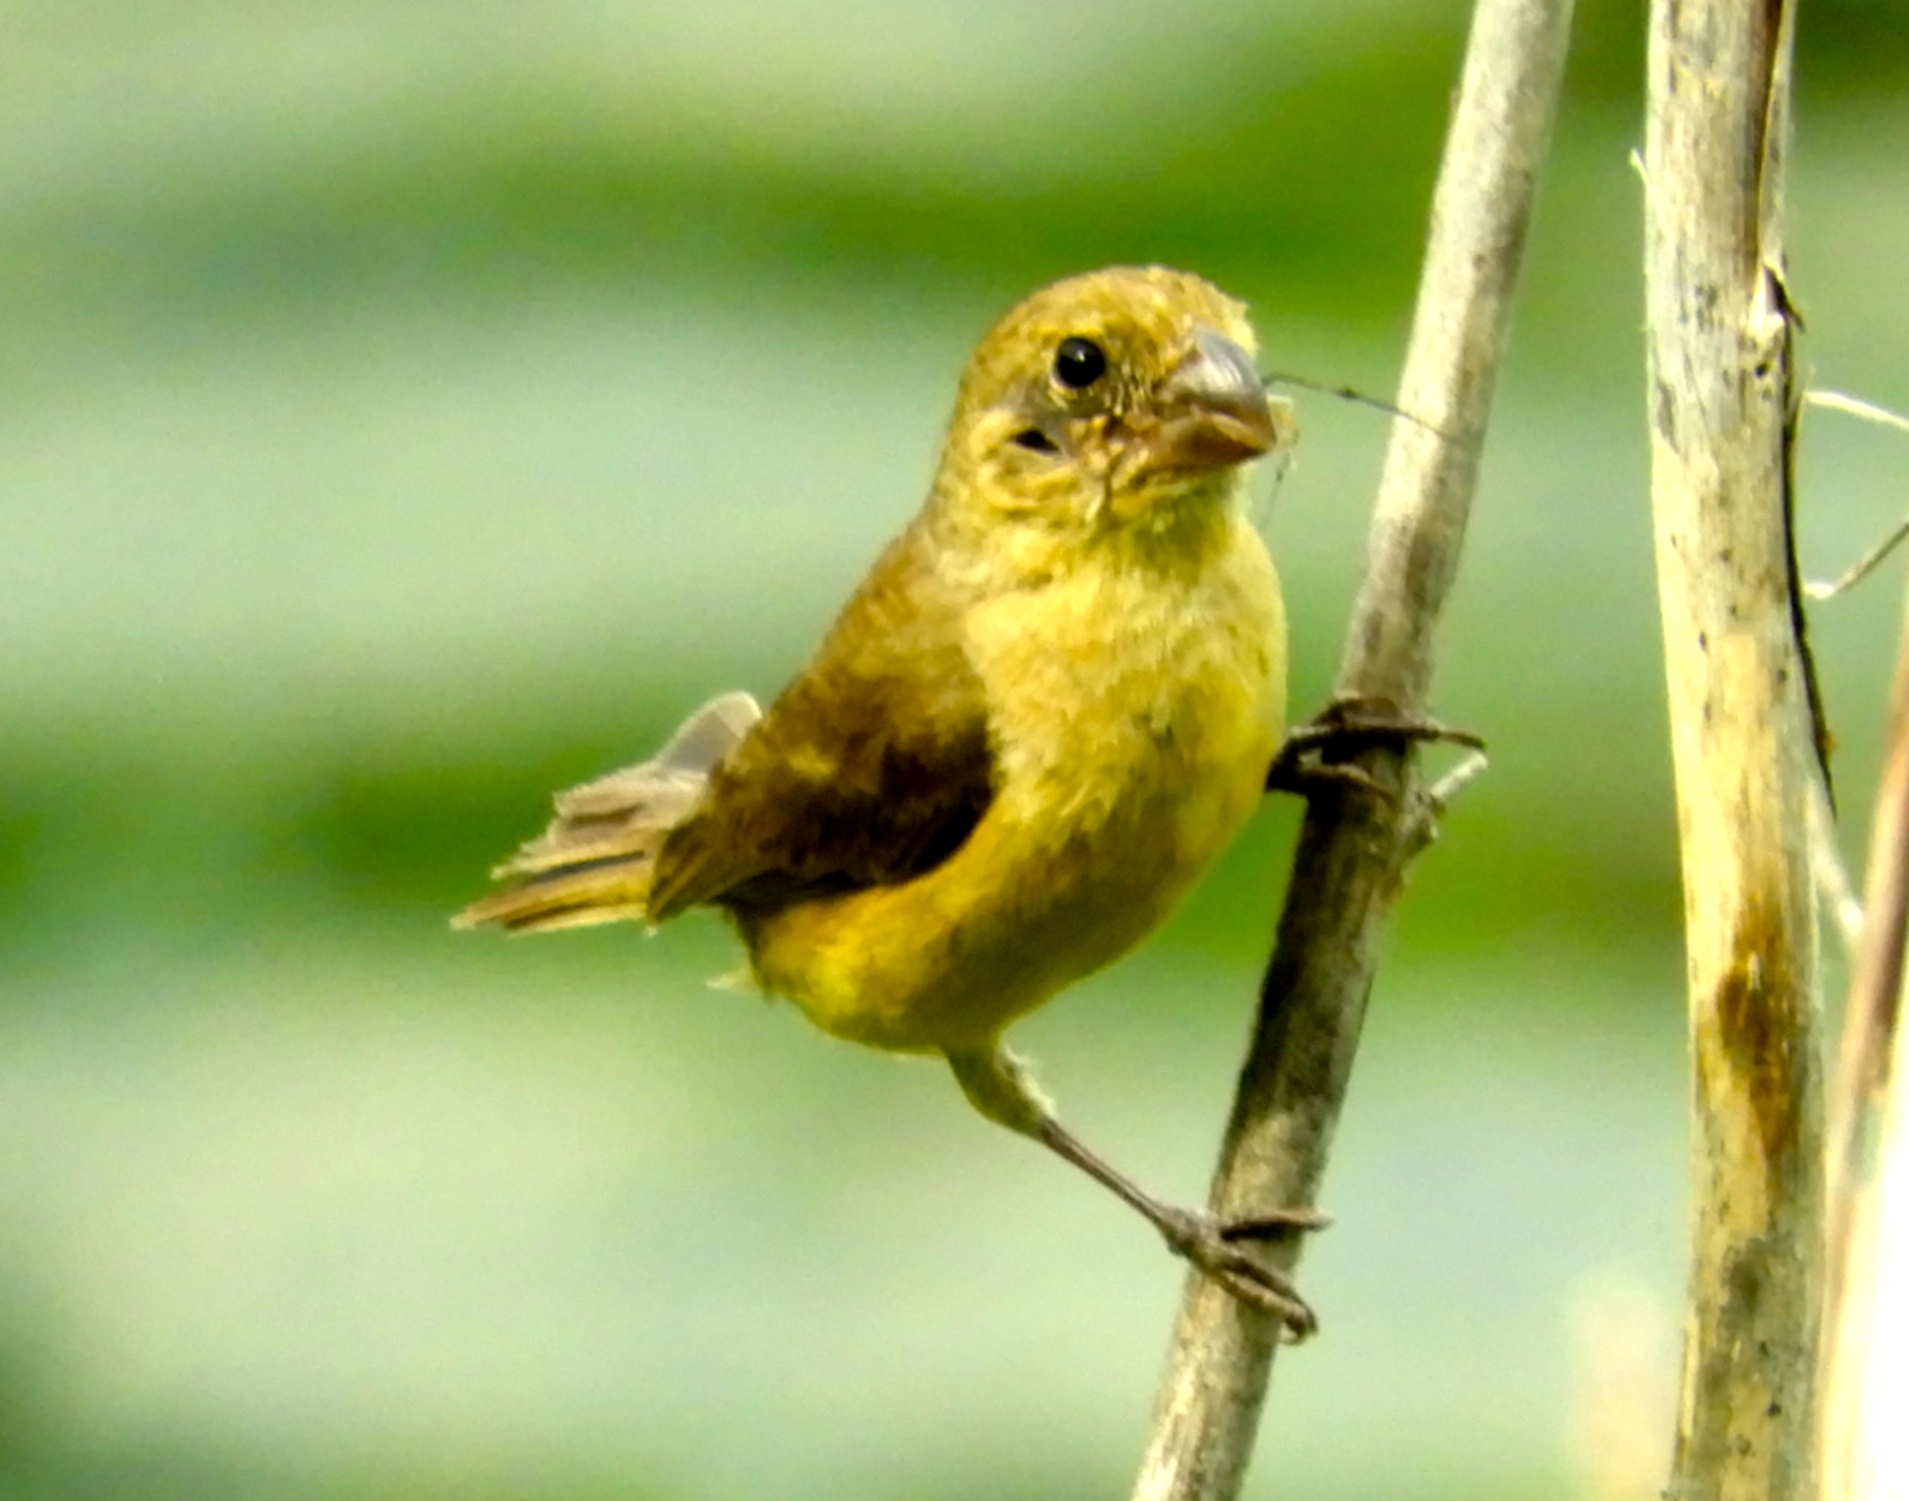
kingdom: Animalia
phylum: Chordata
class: Aves
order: Passeriformes
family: Thraupidae
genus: Sporophila
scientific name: Sporophila torqueola
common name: White-collared seedeater
